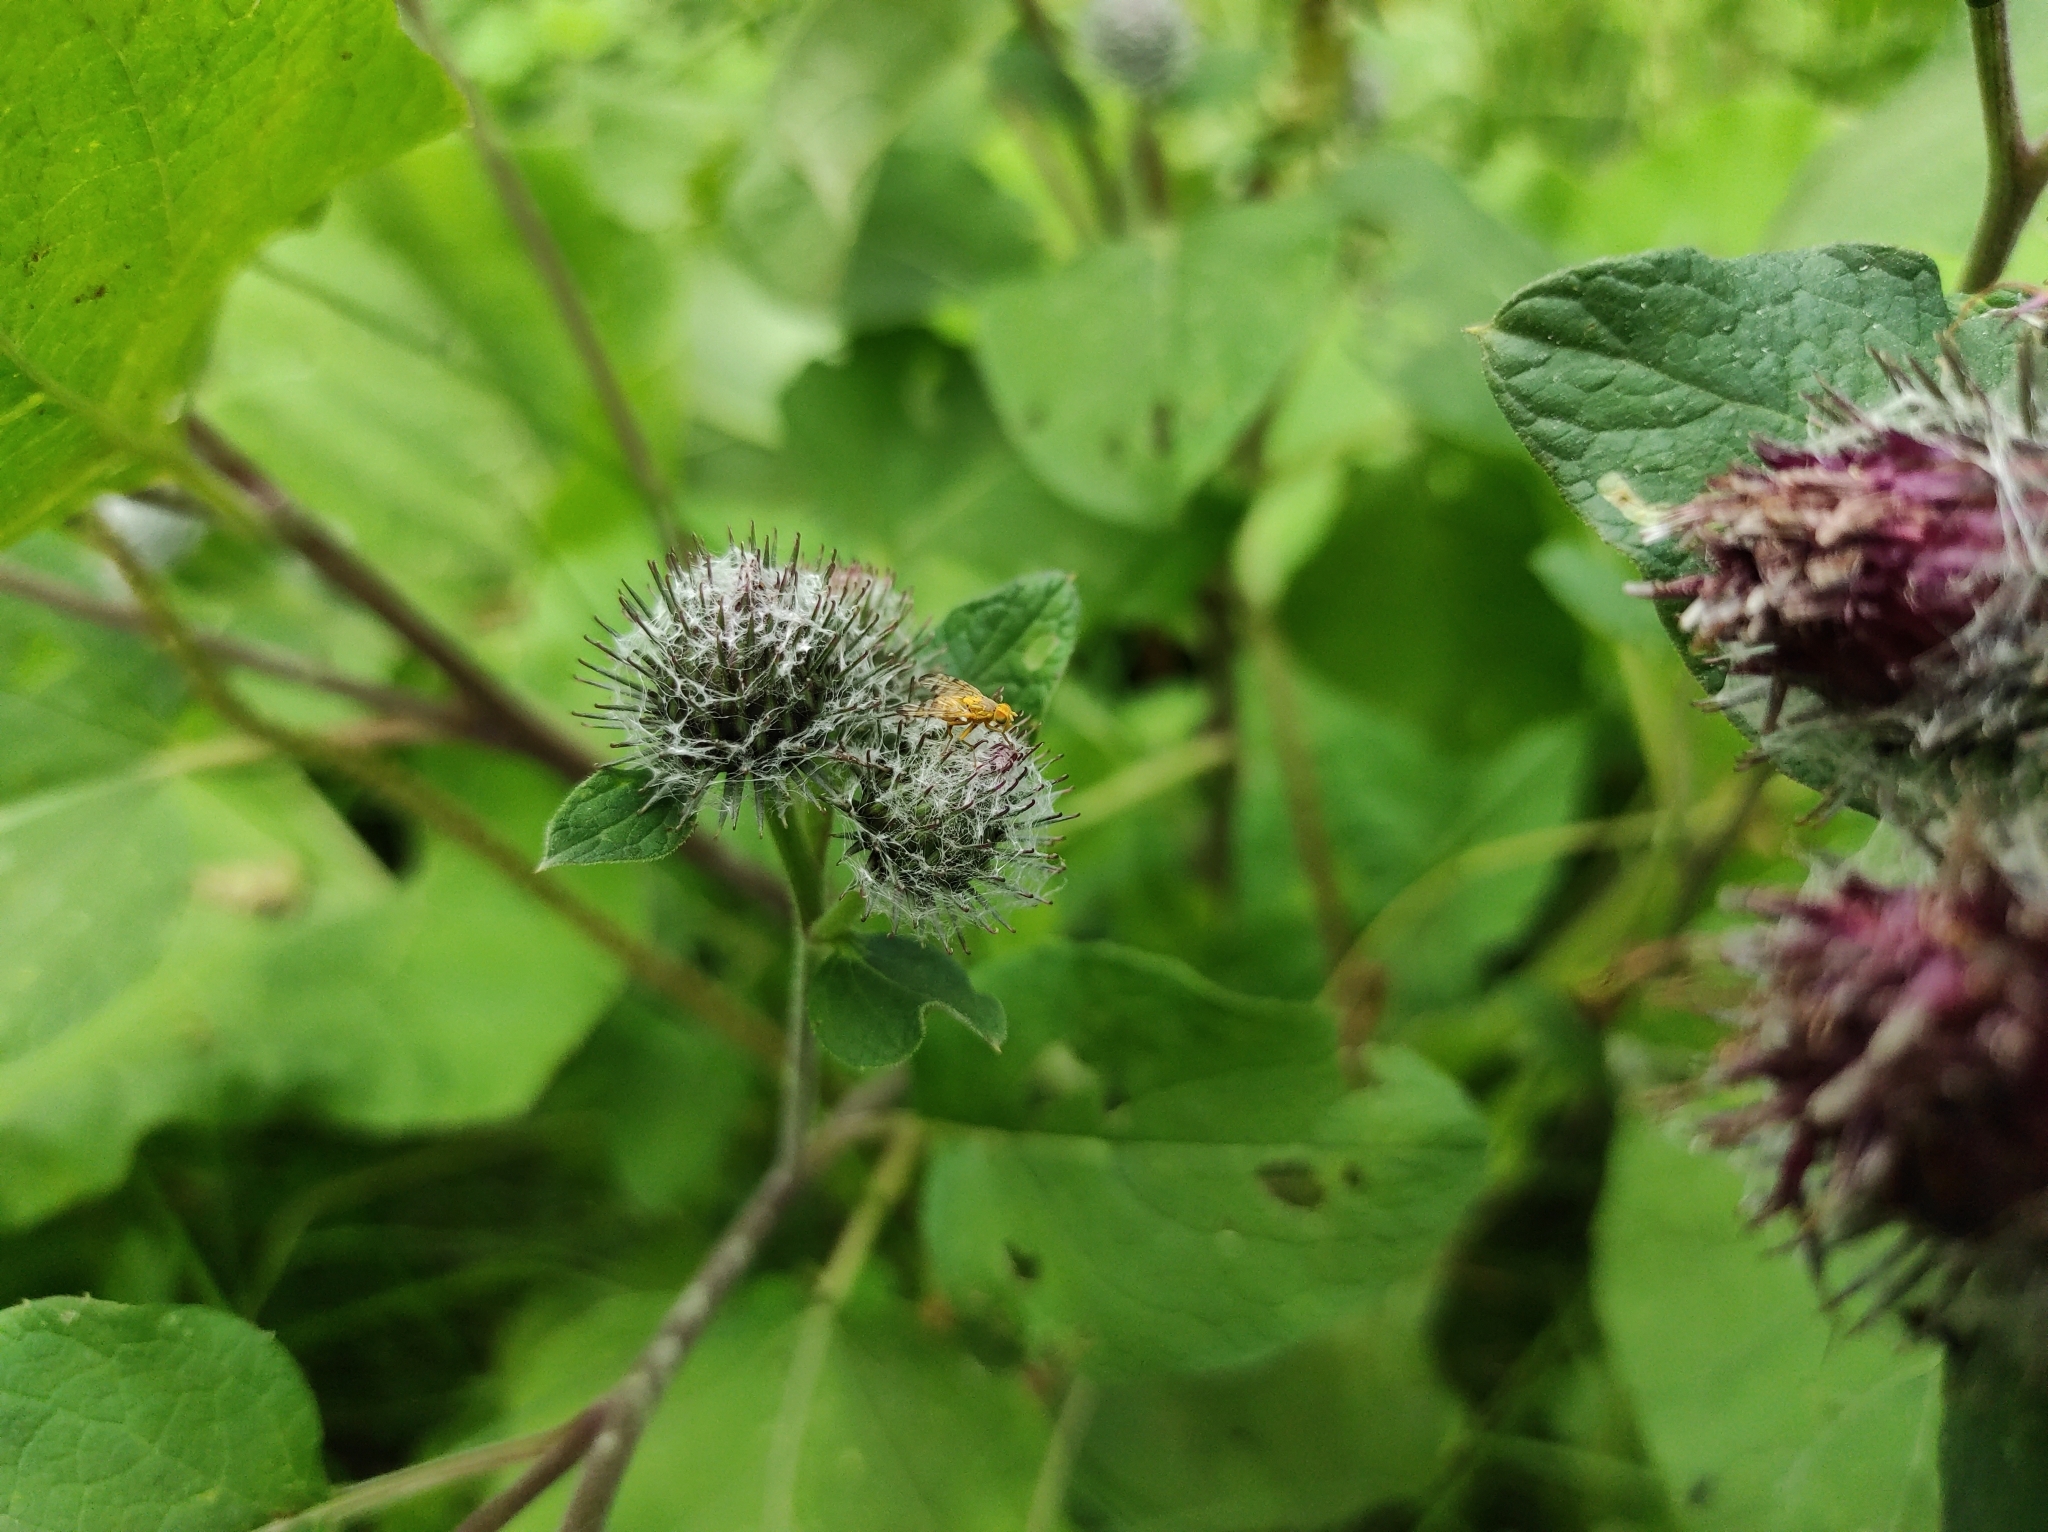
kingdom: Plantae
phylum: Tracheophyta
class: Magnoliopsida
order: Asterales
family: Asteraceae
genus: Arctium
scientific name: Arctium tomentosum
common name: Woolly burdock
